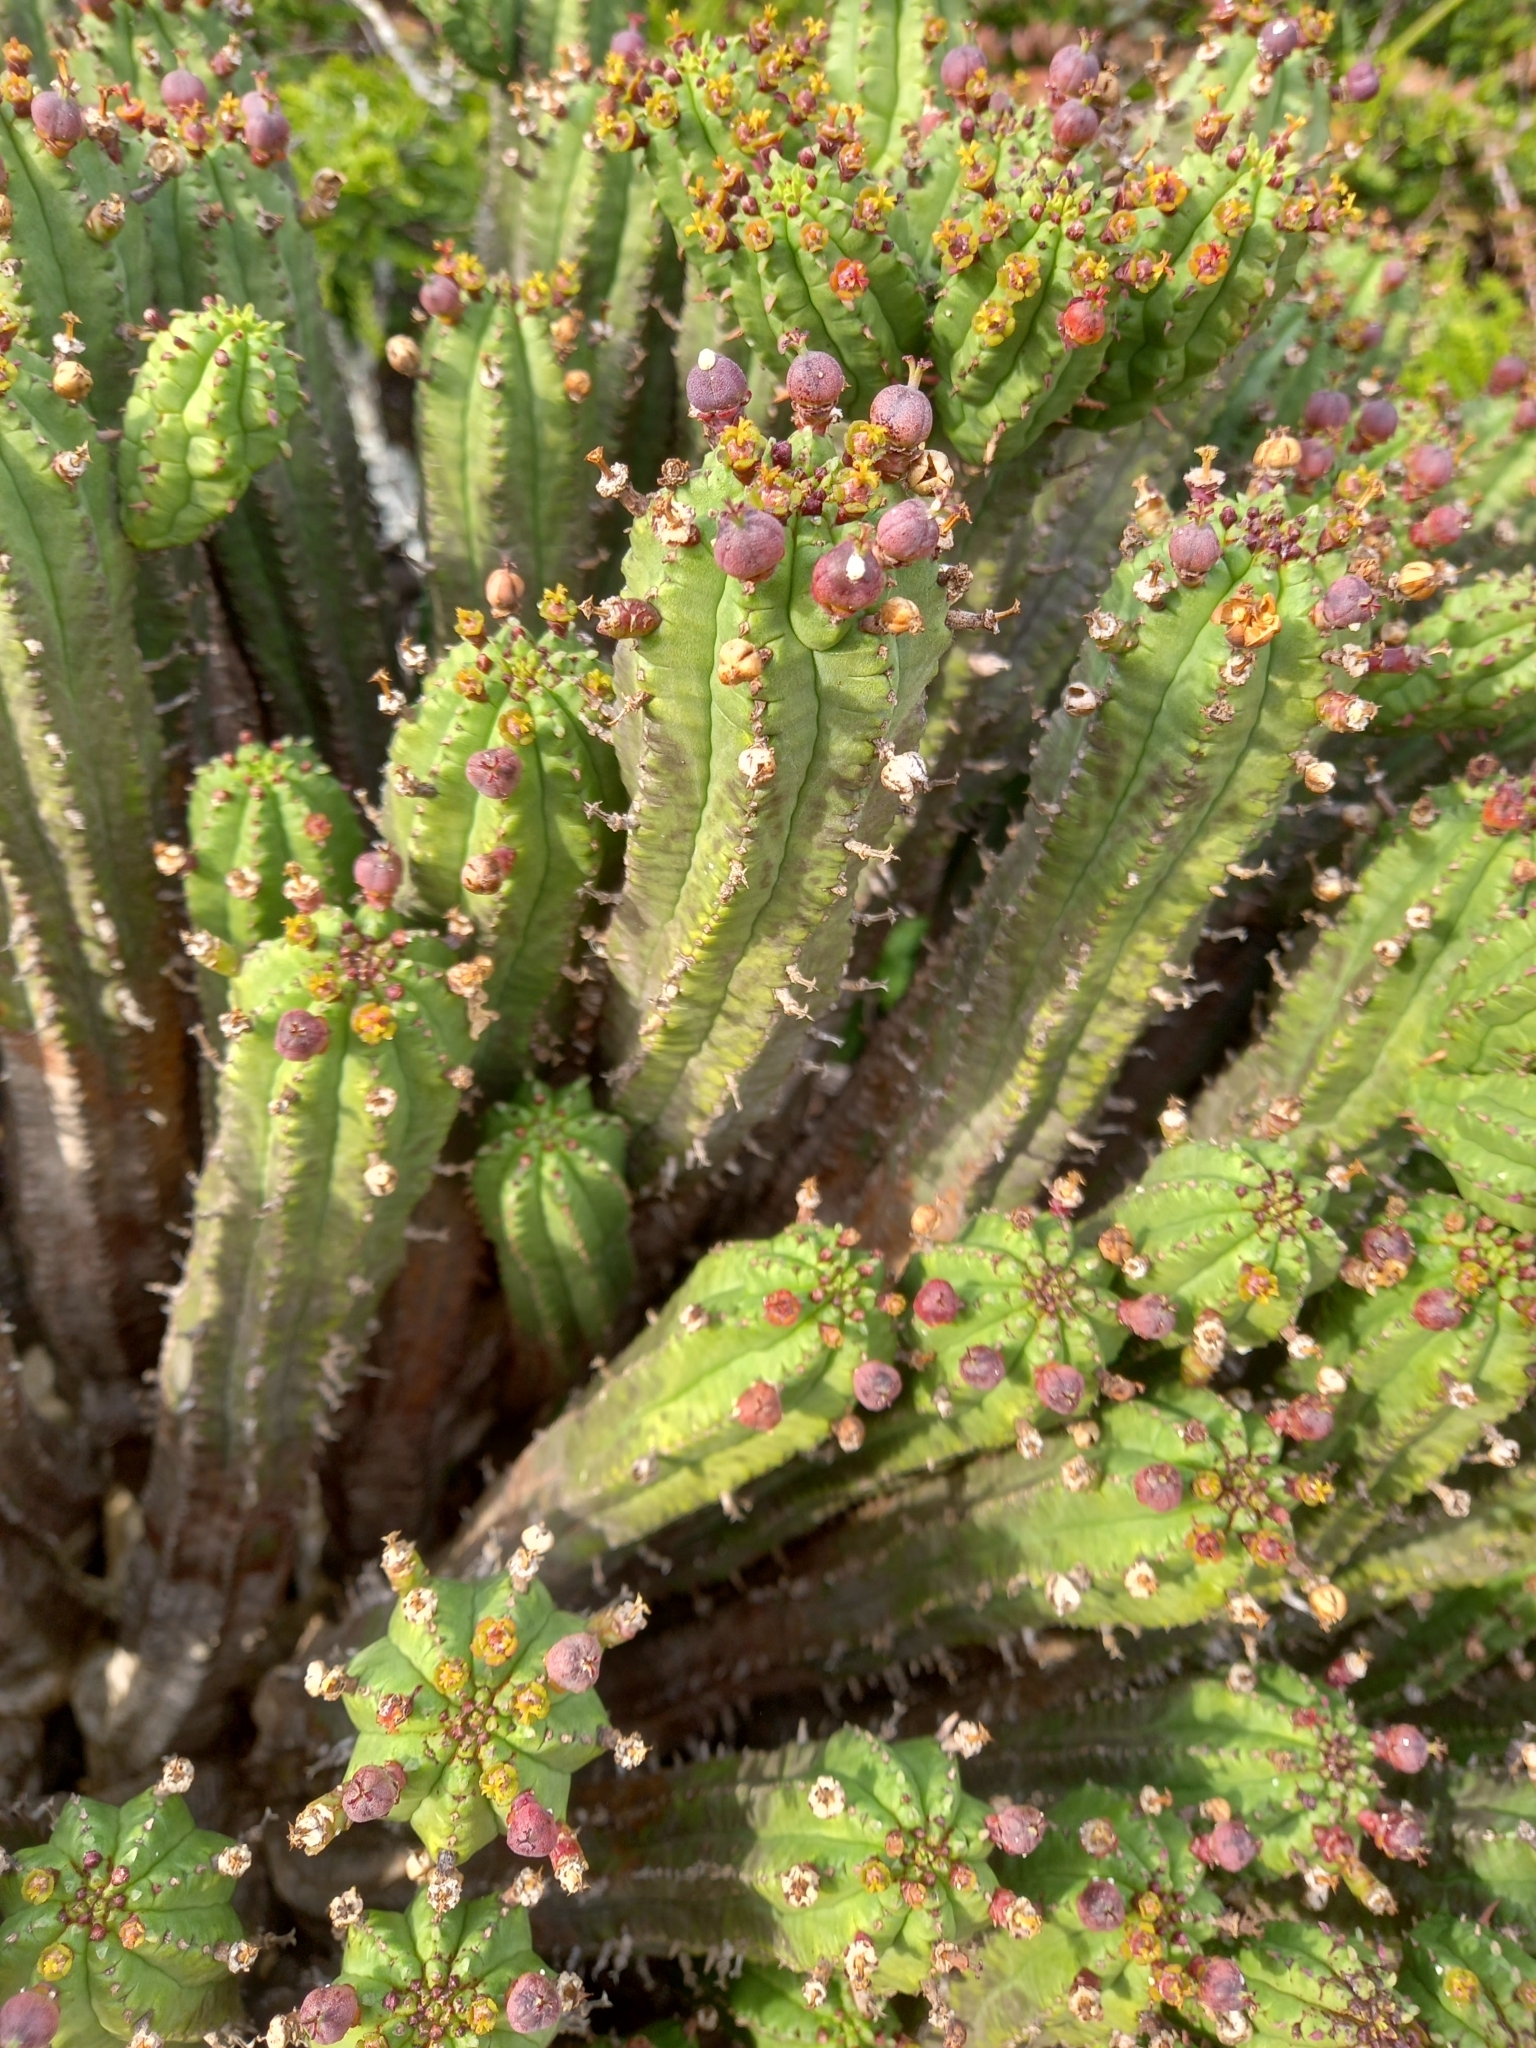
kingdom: Plantae
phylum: Tracheophyta
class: Magnoliopsida
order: Malpighiales
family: Euphorbiaceae
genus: Euphorbia
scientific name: Euphorbia mammillaris
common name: Corkscrew
